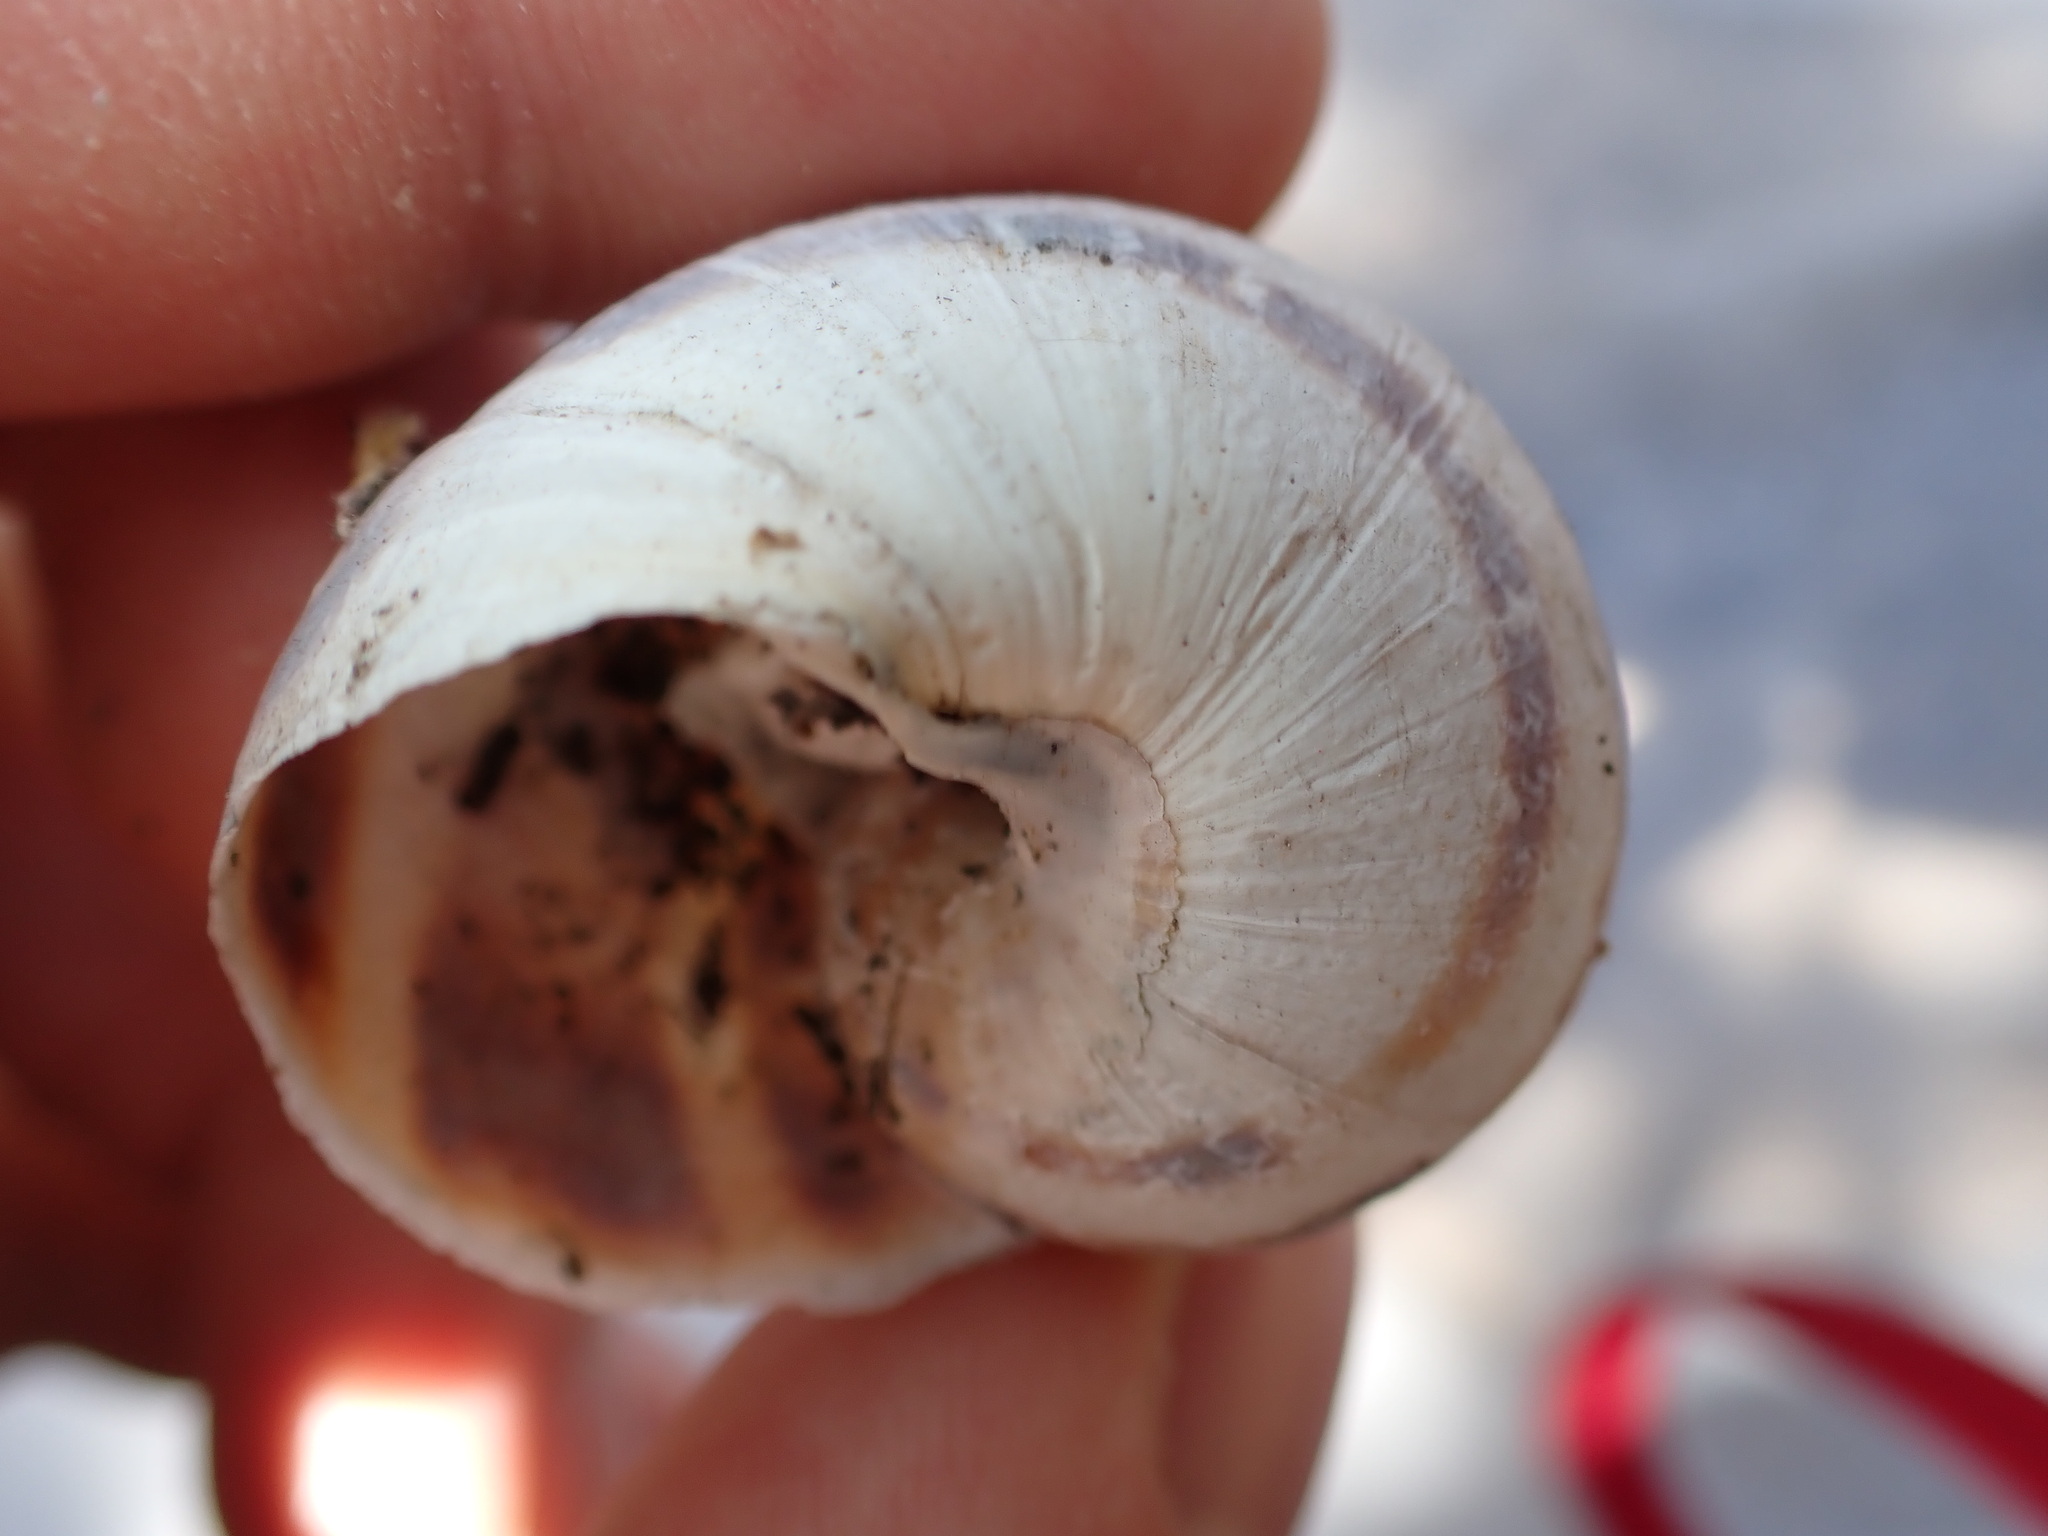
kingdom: Animalia
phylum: Mollusca
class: Gastropoda
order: Stylommatophora
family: Helicidae
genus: Cornu
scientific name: Cornu aspersum
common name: Brown garden snail
